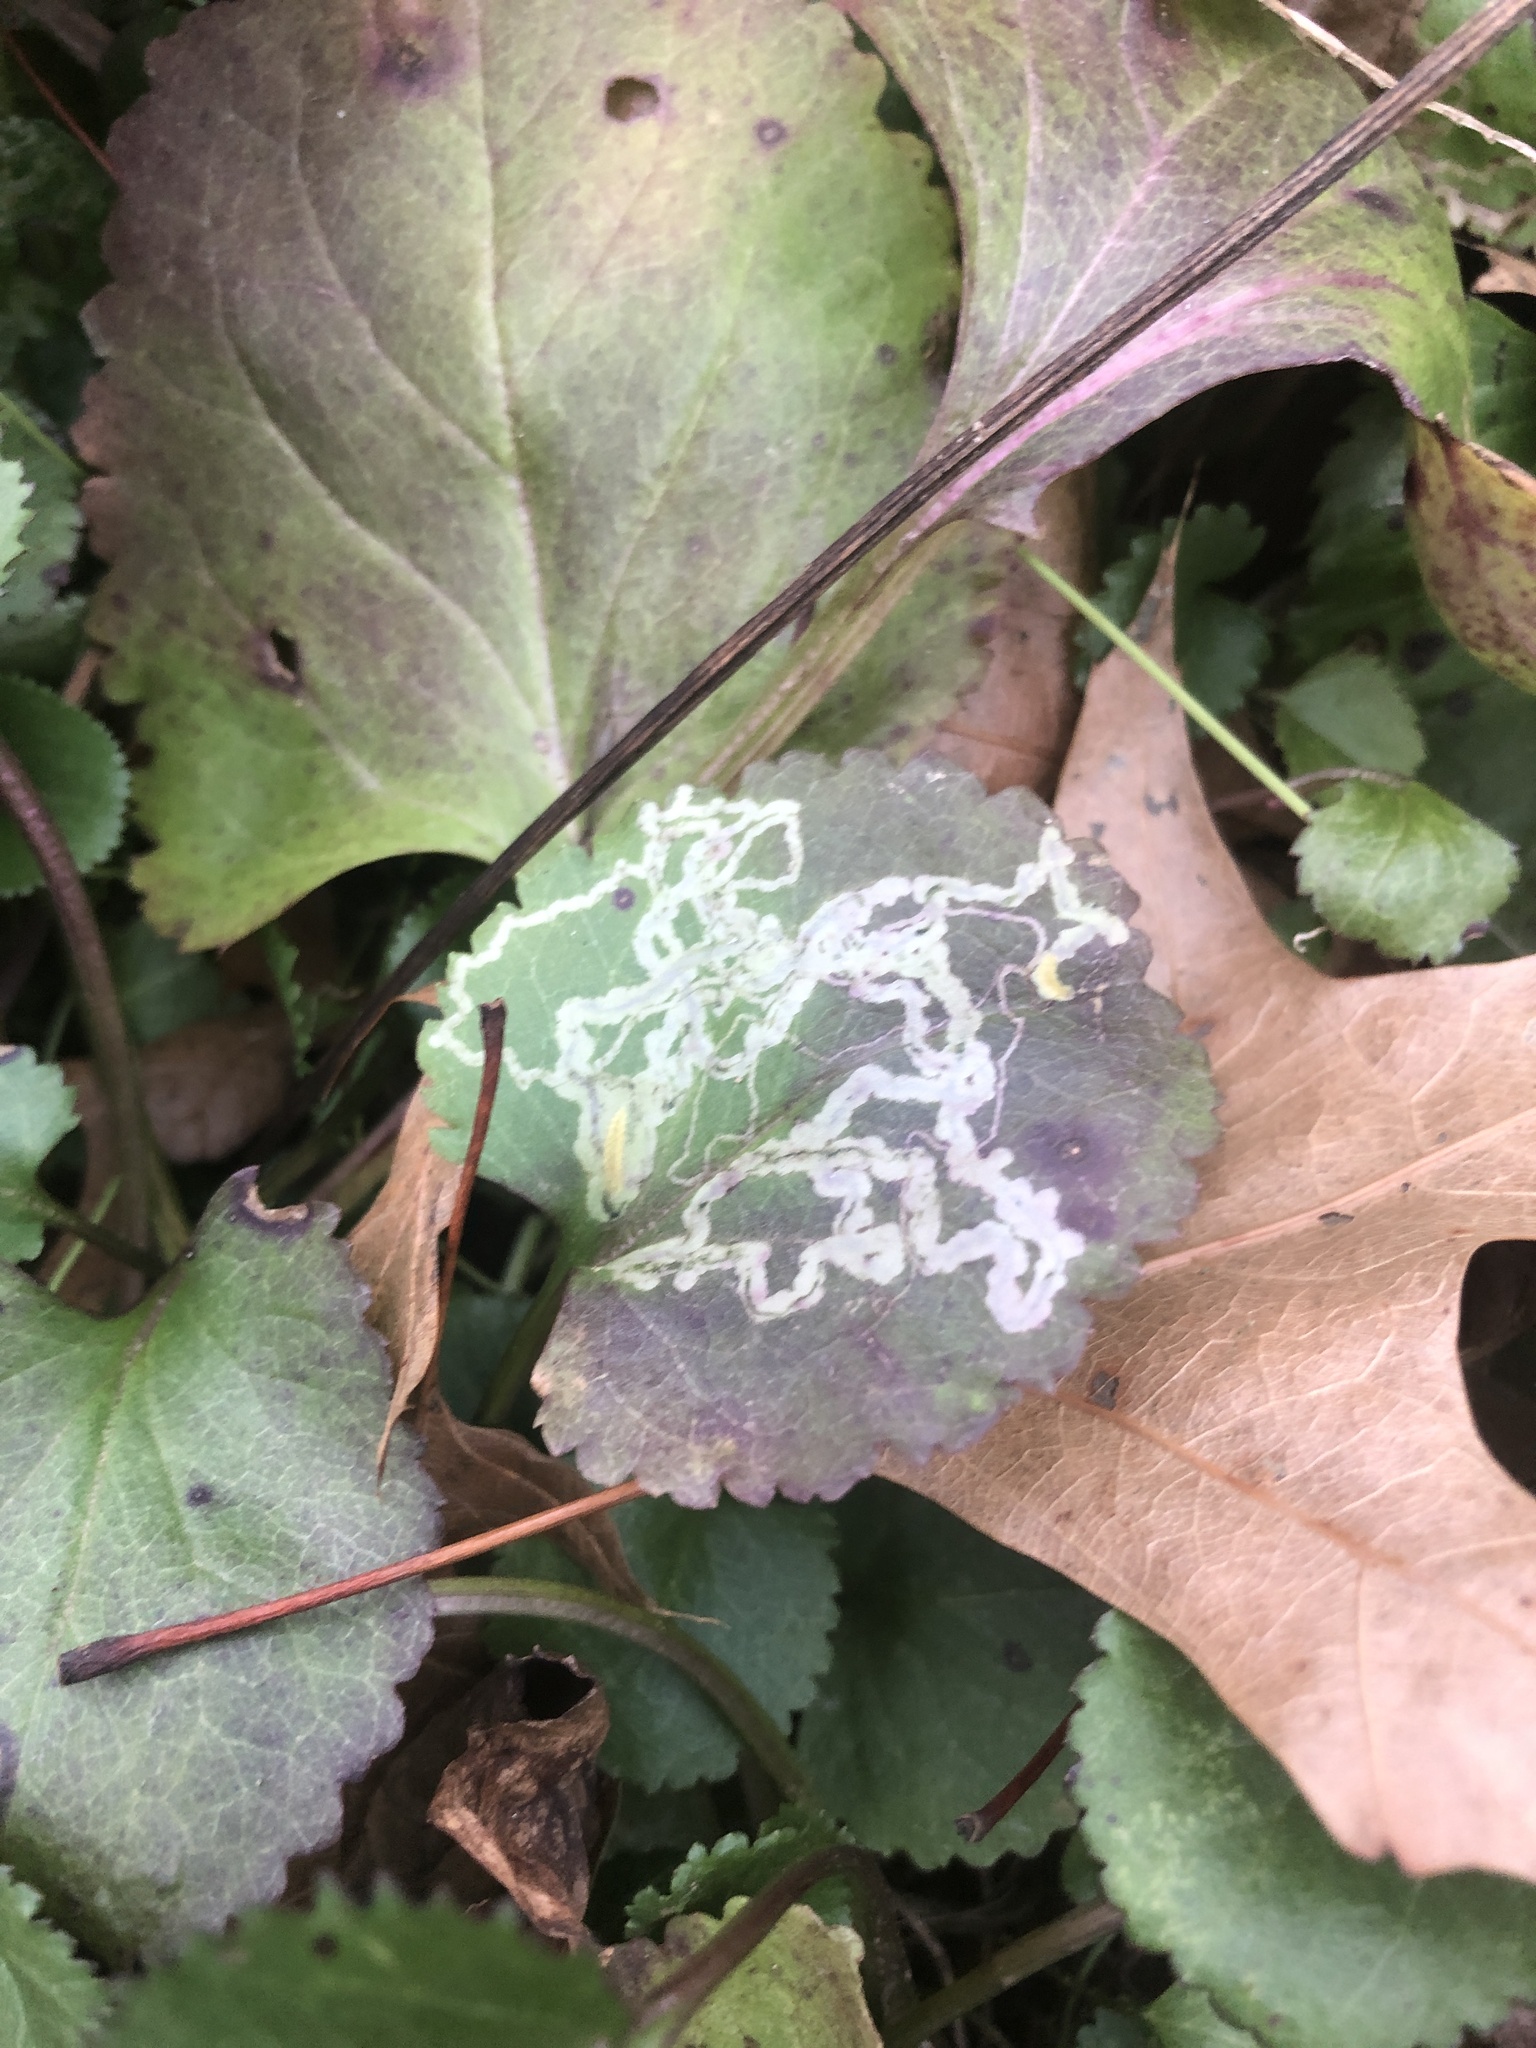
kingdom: Animalia
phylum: Arthropoda
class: Insecta
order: Lepidoptera
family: Gracillariidae
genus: Phyllocnistis
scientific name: Phyllocnistis insignis
